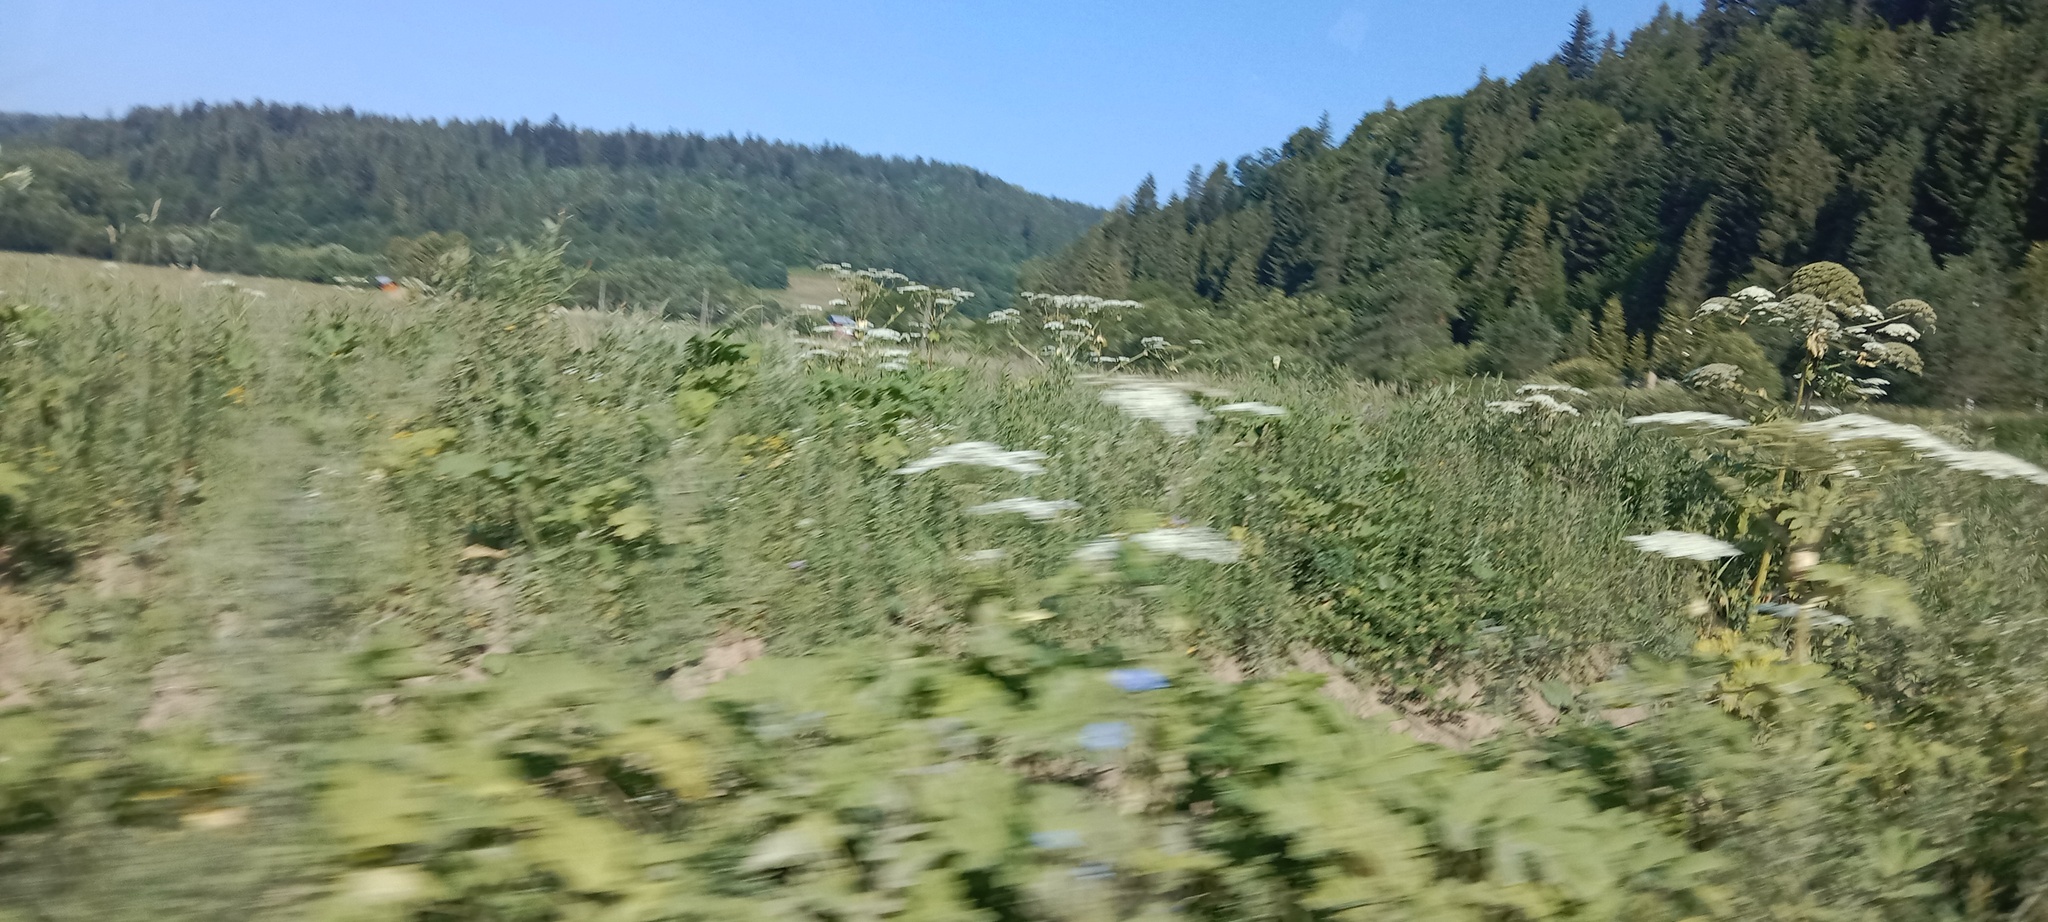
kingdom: Plantae
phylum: Tracheophyta
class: Magnoliopsida
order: Apiales
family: Apiaceae
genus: Heracleum
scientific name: Heracleum sosnowskyi
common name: Sosnowsky's hogweed
